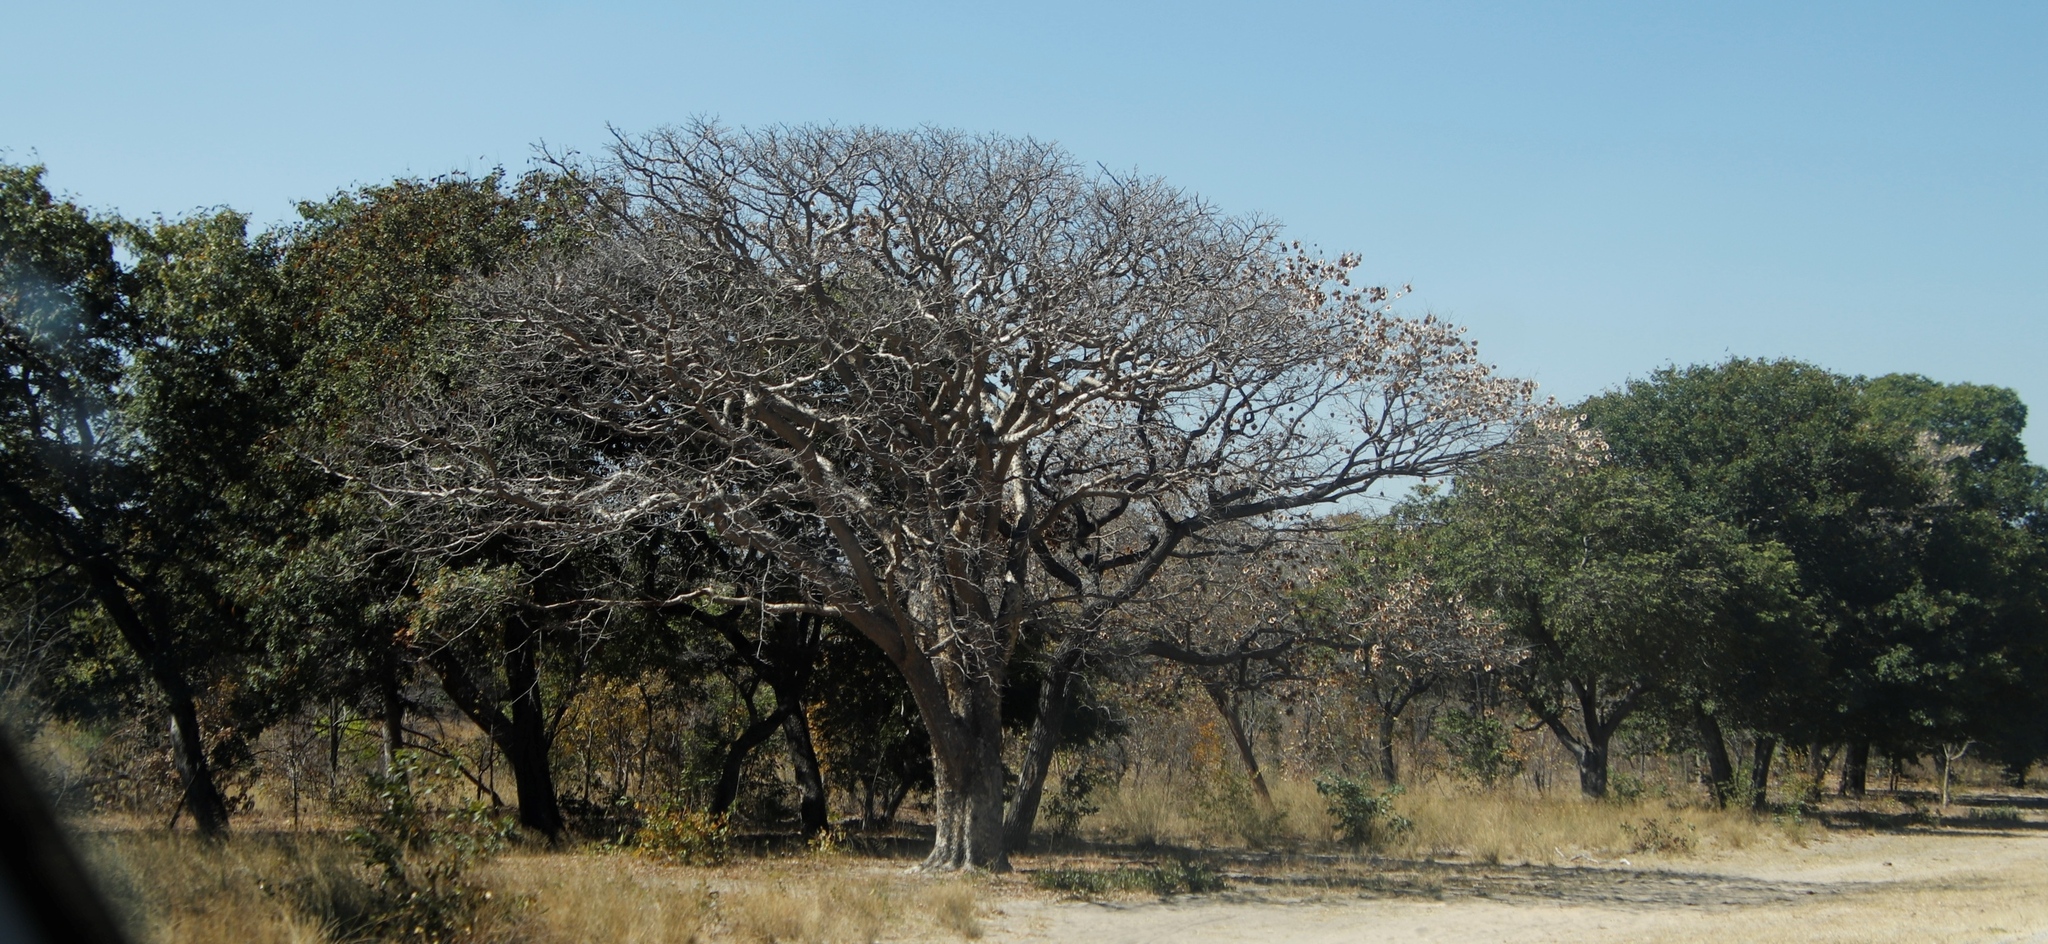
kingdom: Plantae
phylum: Tracheophyta
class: Magnoliopsida
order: Fabales
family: Fabaceae
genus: Pterocarpus
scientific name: Pterocarpus angolensis
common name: Bloodwood tree
